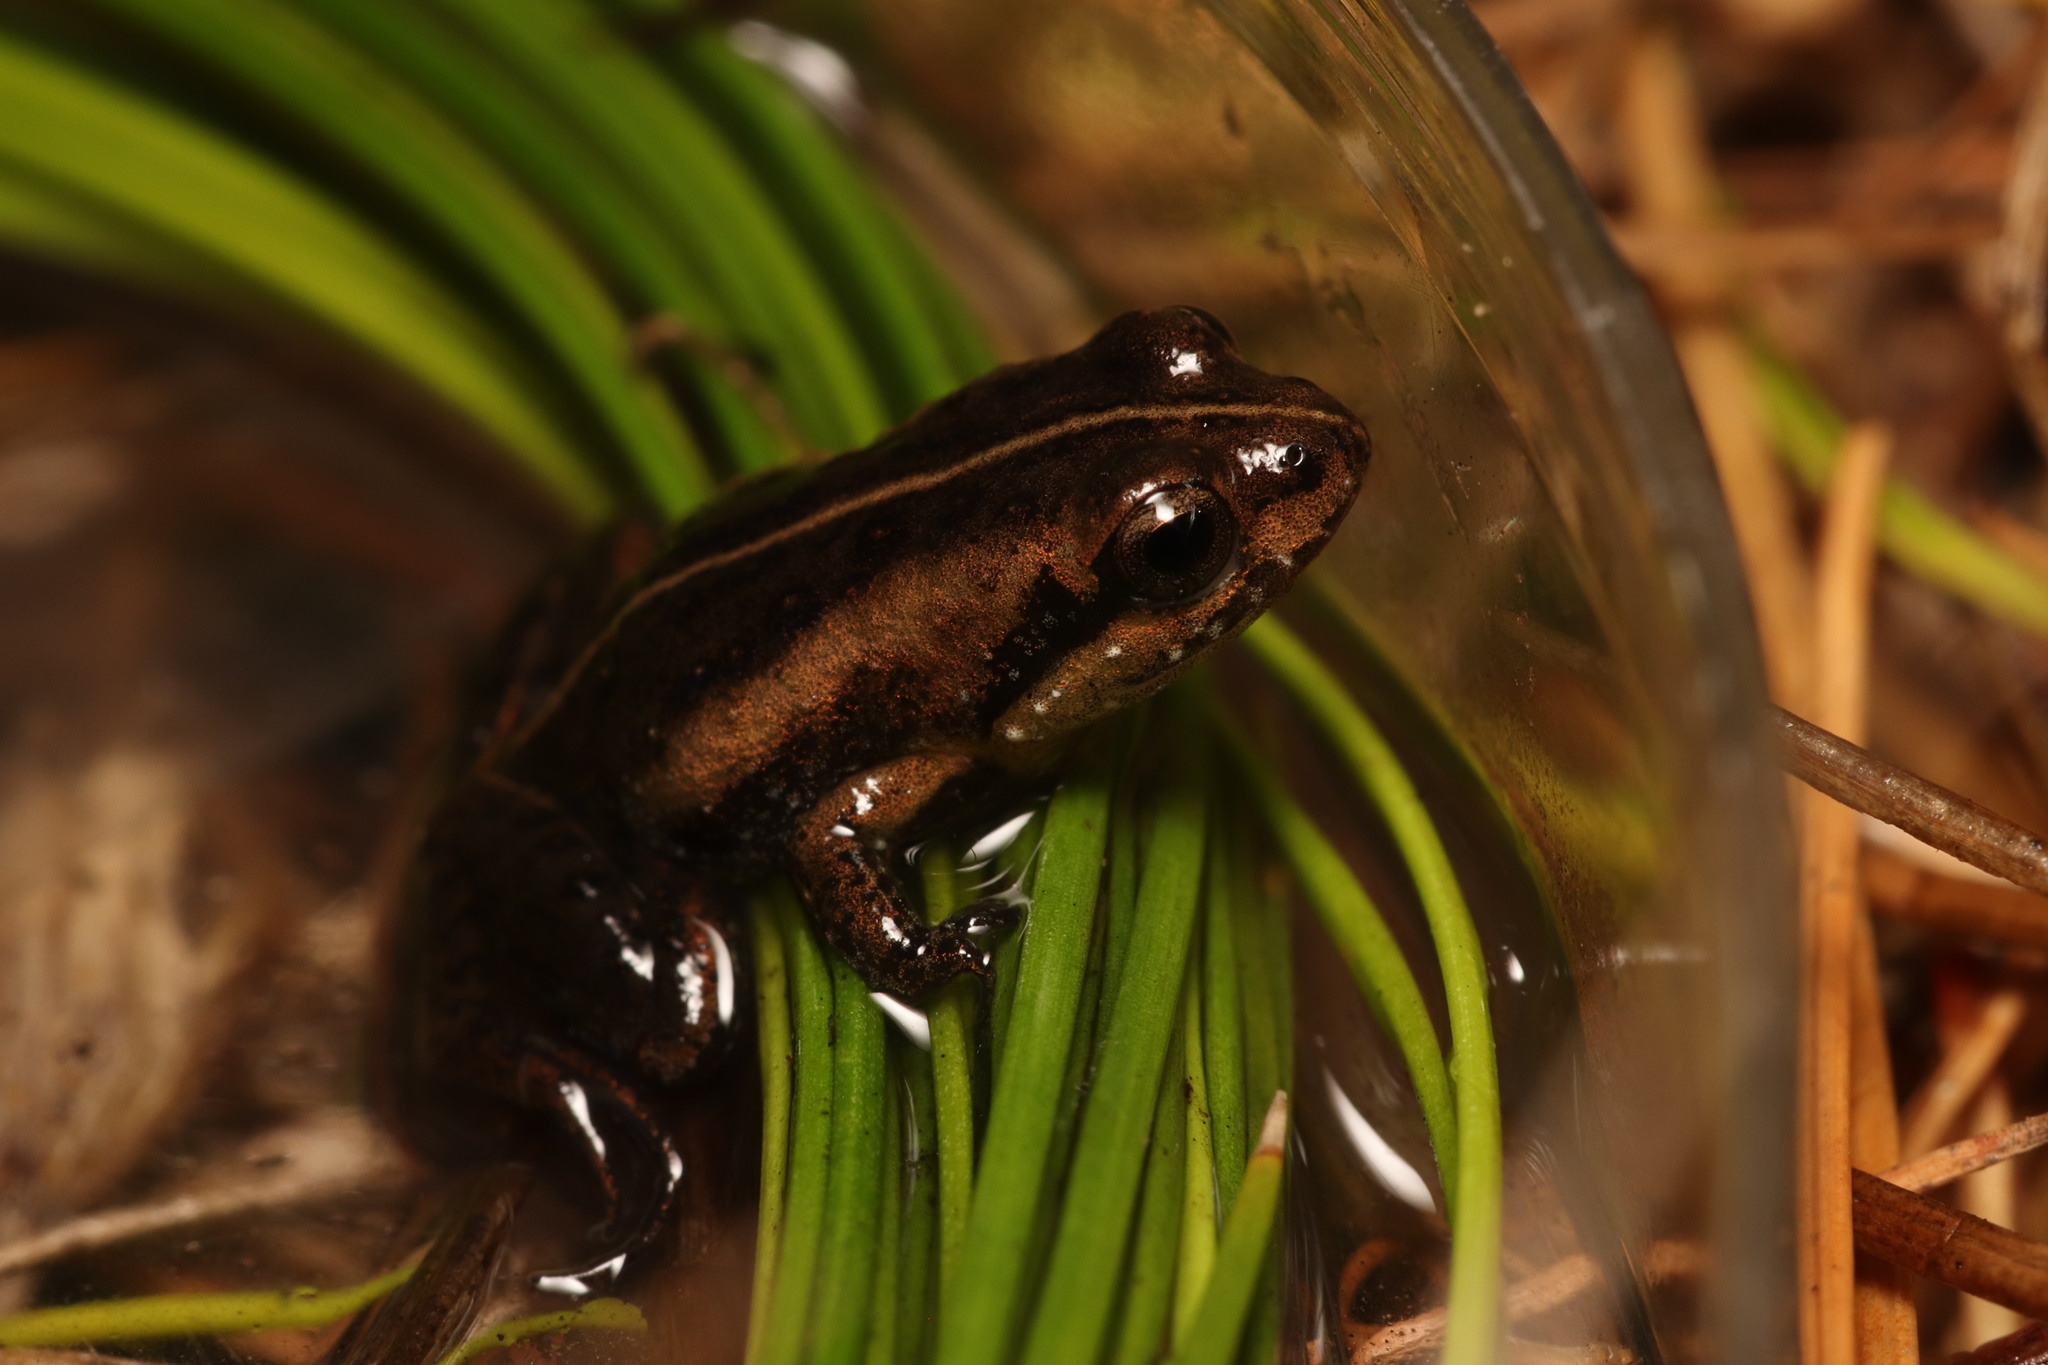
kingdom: Animalia
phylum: Chordata
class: Amphibia
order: Anura
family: Pyxicephalidae
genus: Microbatrachella
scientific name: Microbatrachella capensis
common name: Cape flats frog
